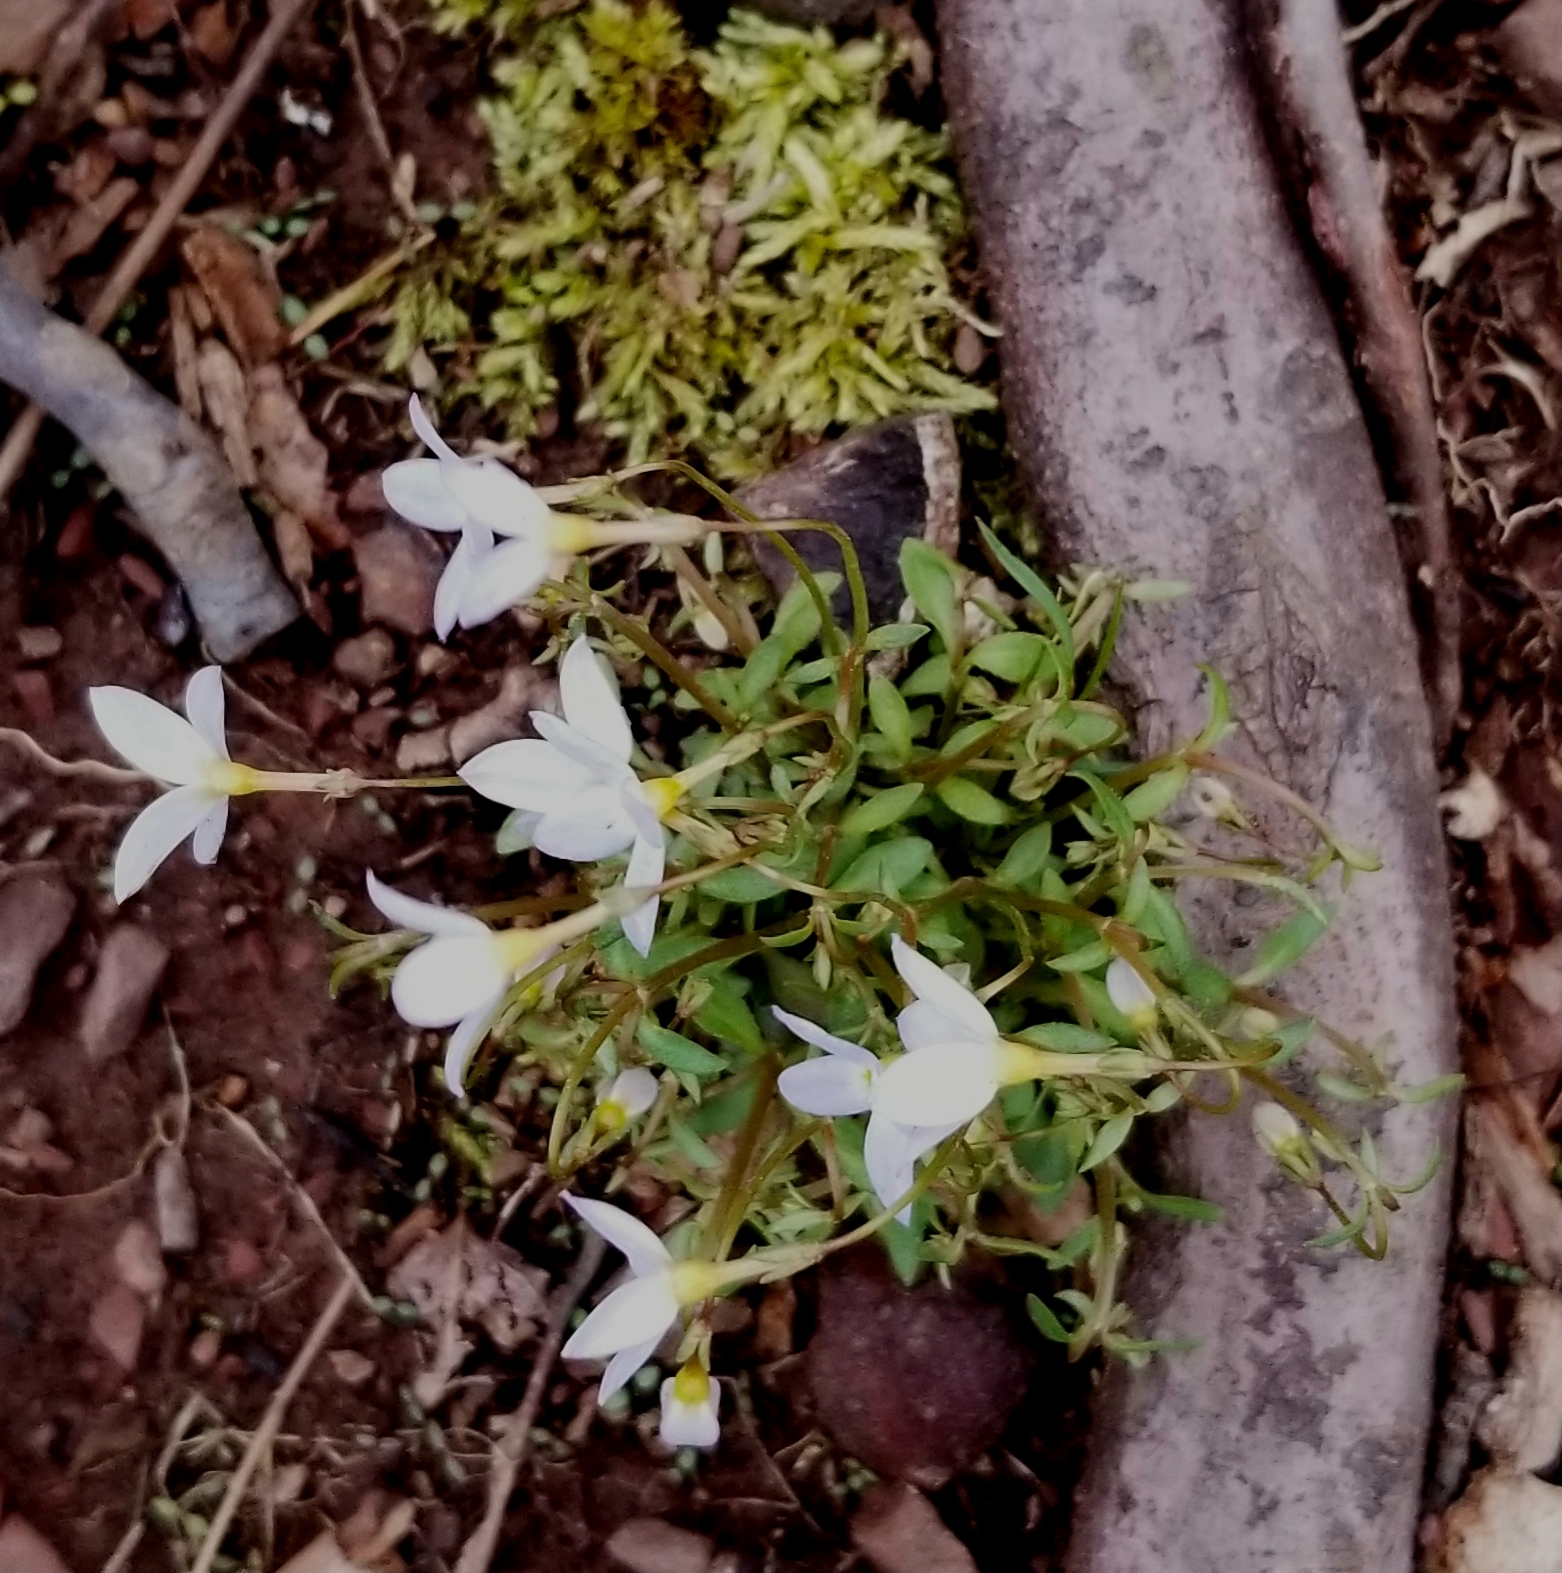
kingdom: Plantae
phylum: Tracheophyta
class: Magnoliopsida
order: Gentianales
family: Rubiaceae
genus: Houstonia
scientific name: Houstonia caerulea
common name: Bluets
